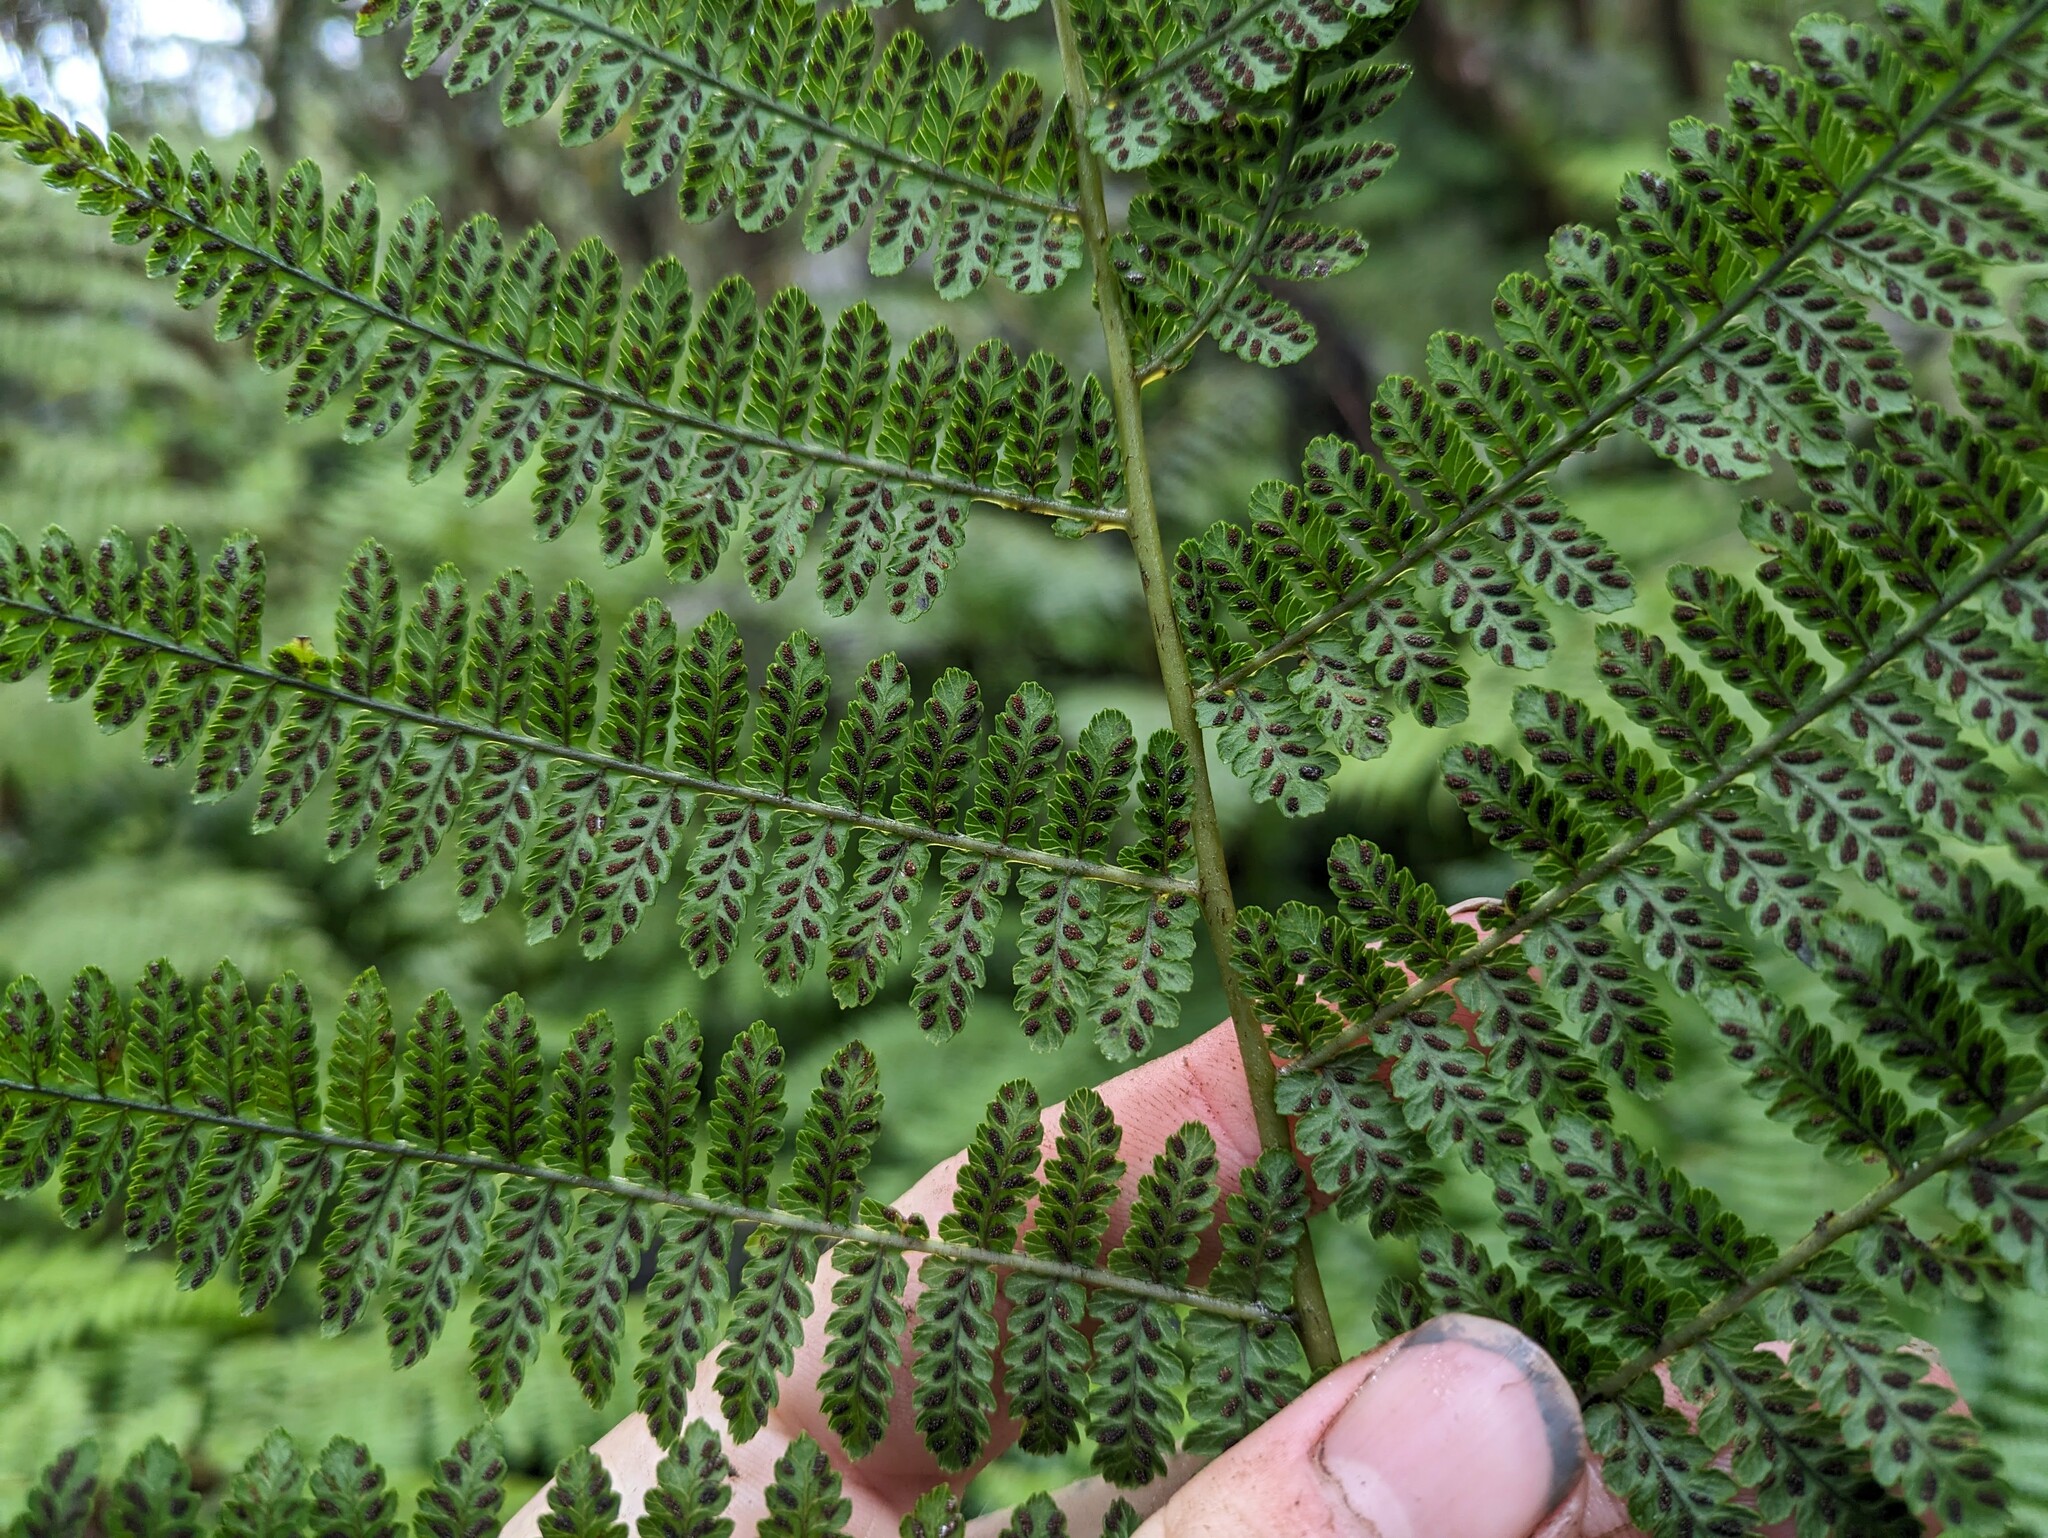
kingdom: Plantae
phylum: Tracheophyta
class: Polypodiopsida
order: Polypodiales
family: Athyriaceae
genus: Diplazium
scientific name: Diplazium sandwichianum
